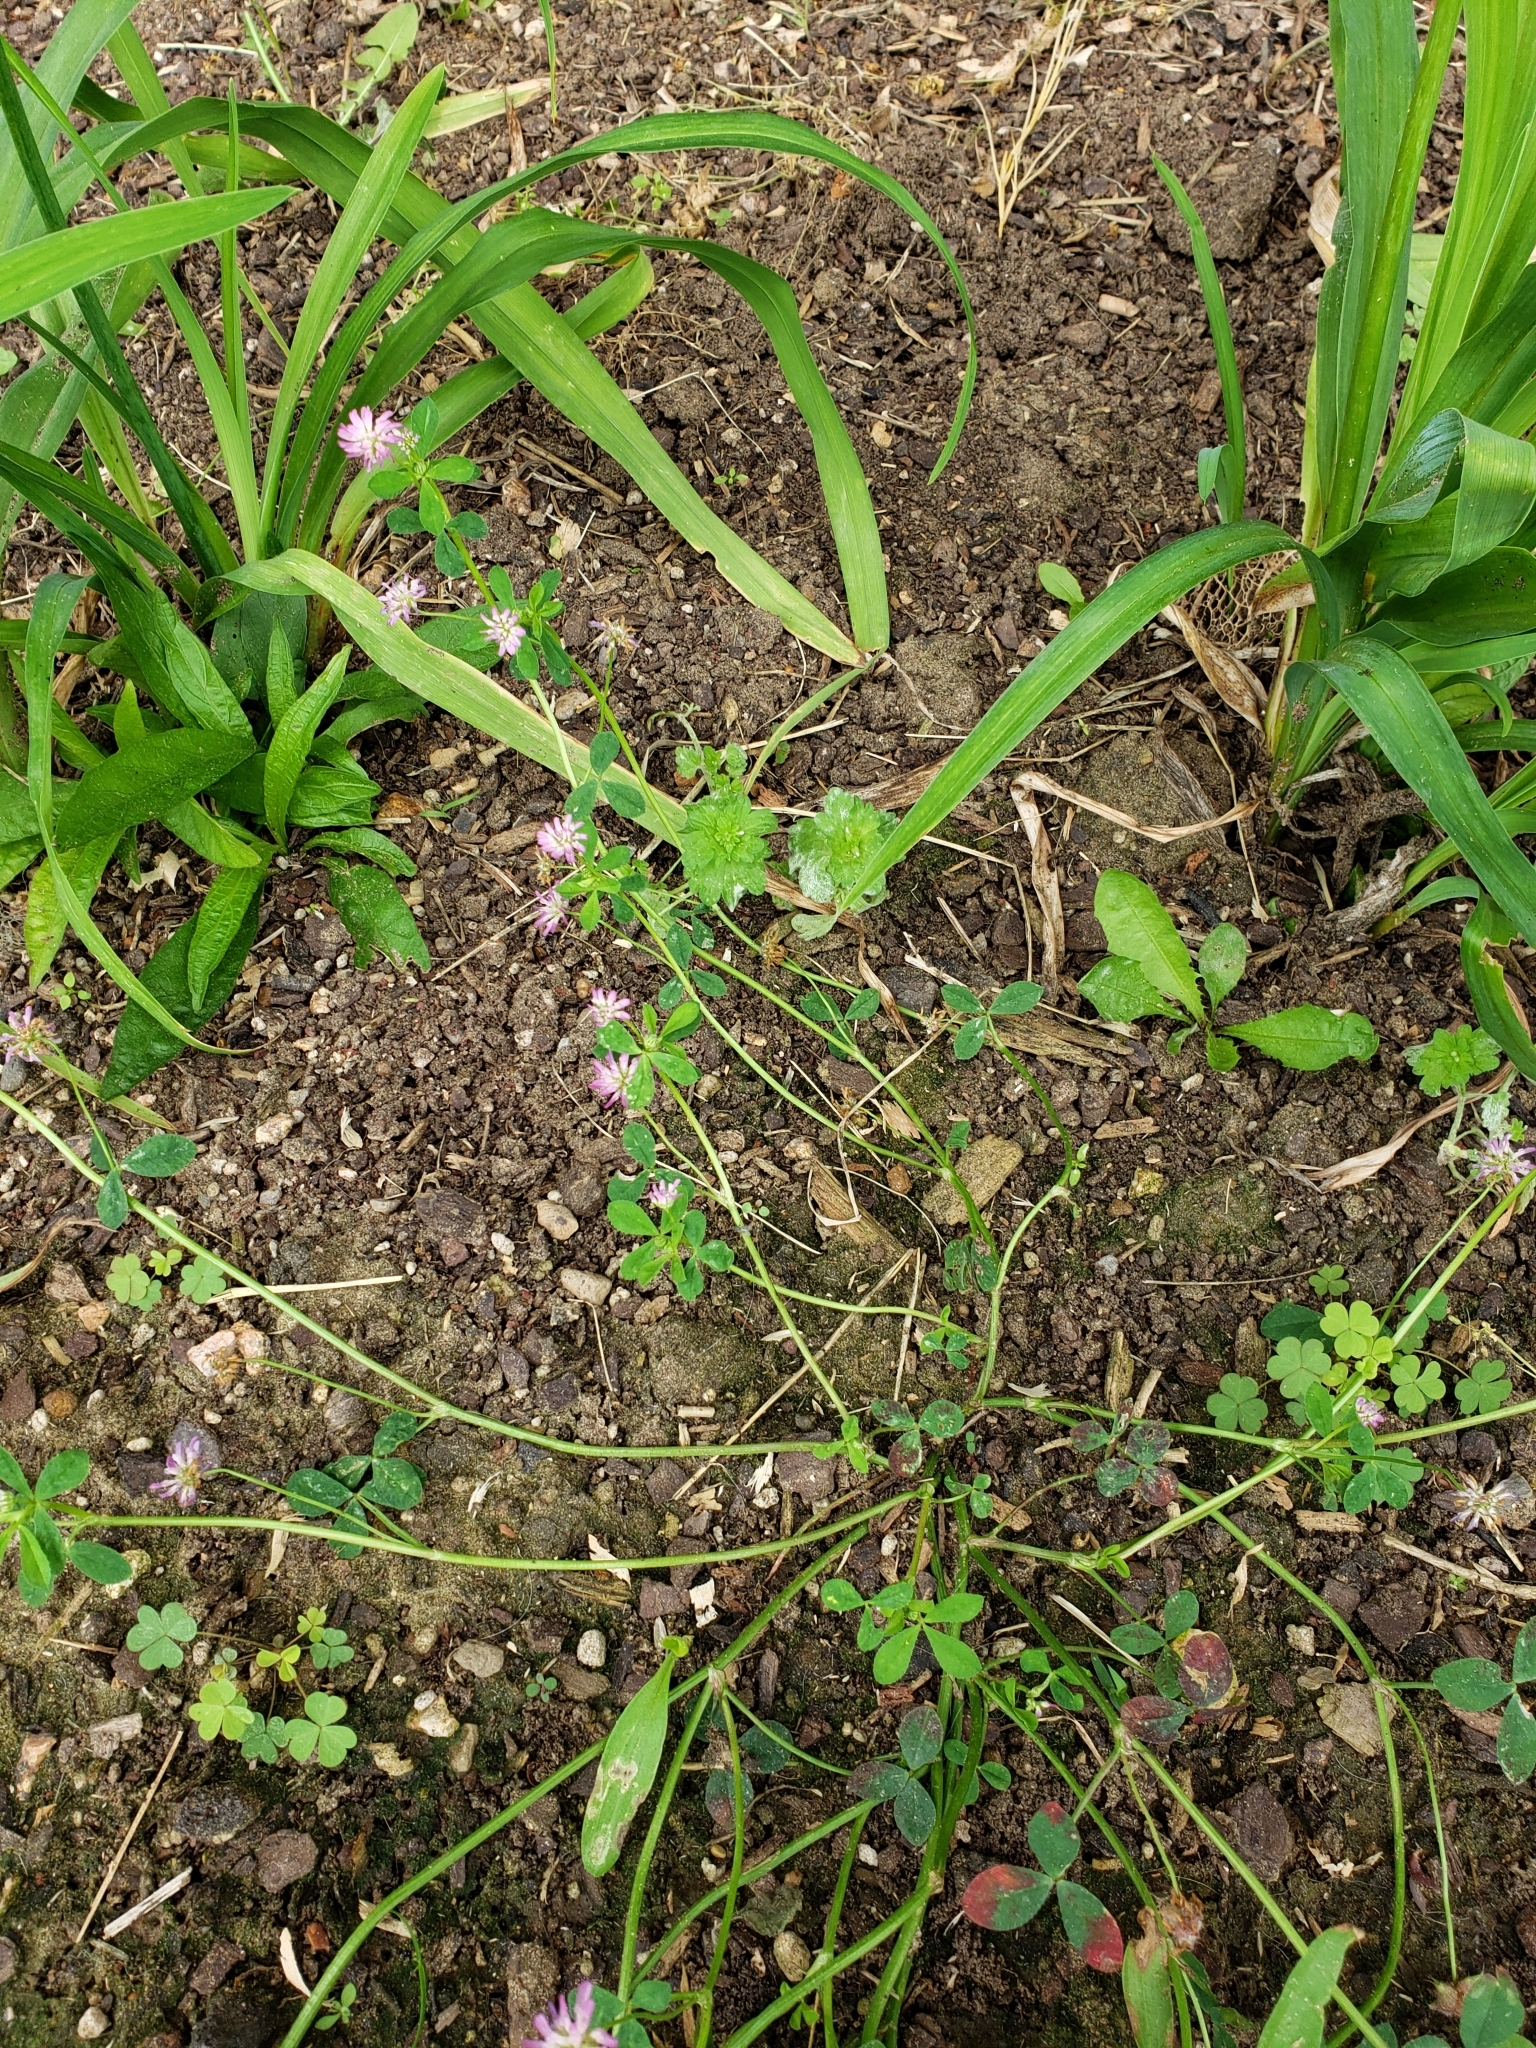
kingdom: Plantae
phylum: Tracheophyta
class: Magnoliopsida
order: Fabales
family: Fabaceae
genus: Trifolium
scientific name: Trifolium resupinatum
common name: Reversed clover
